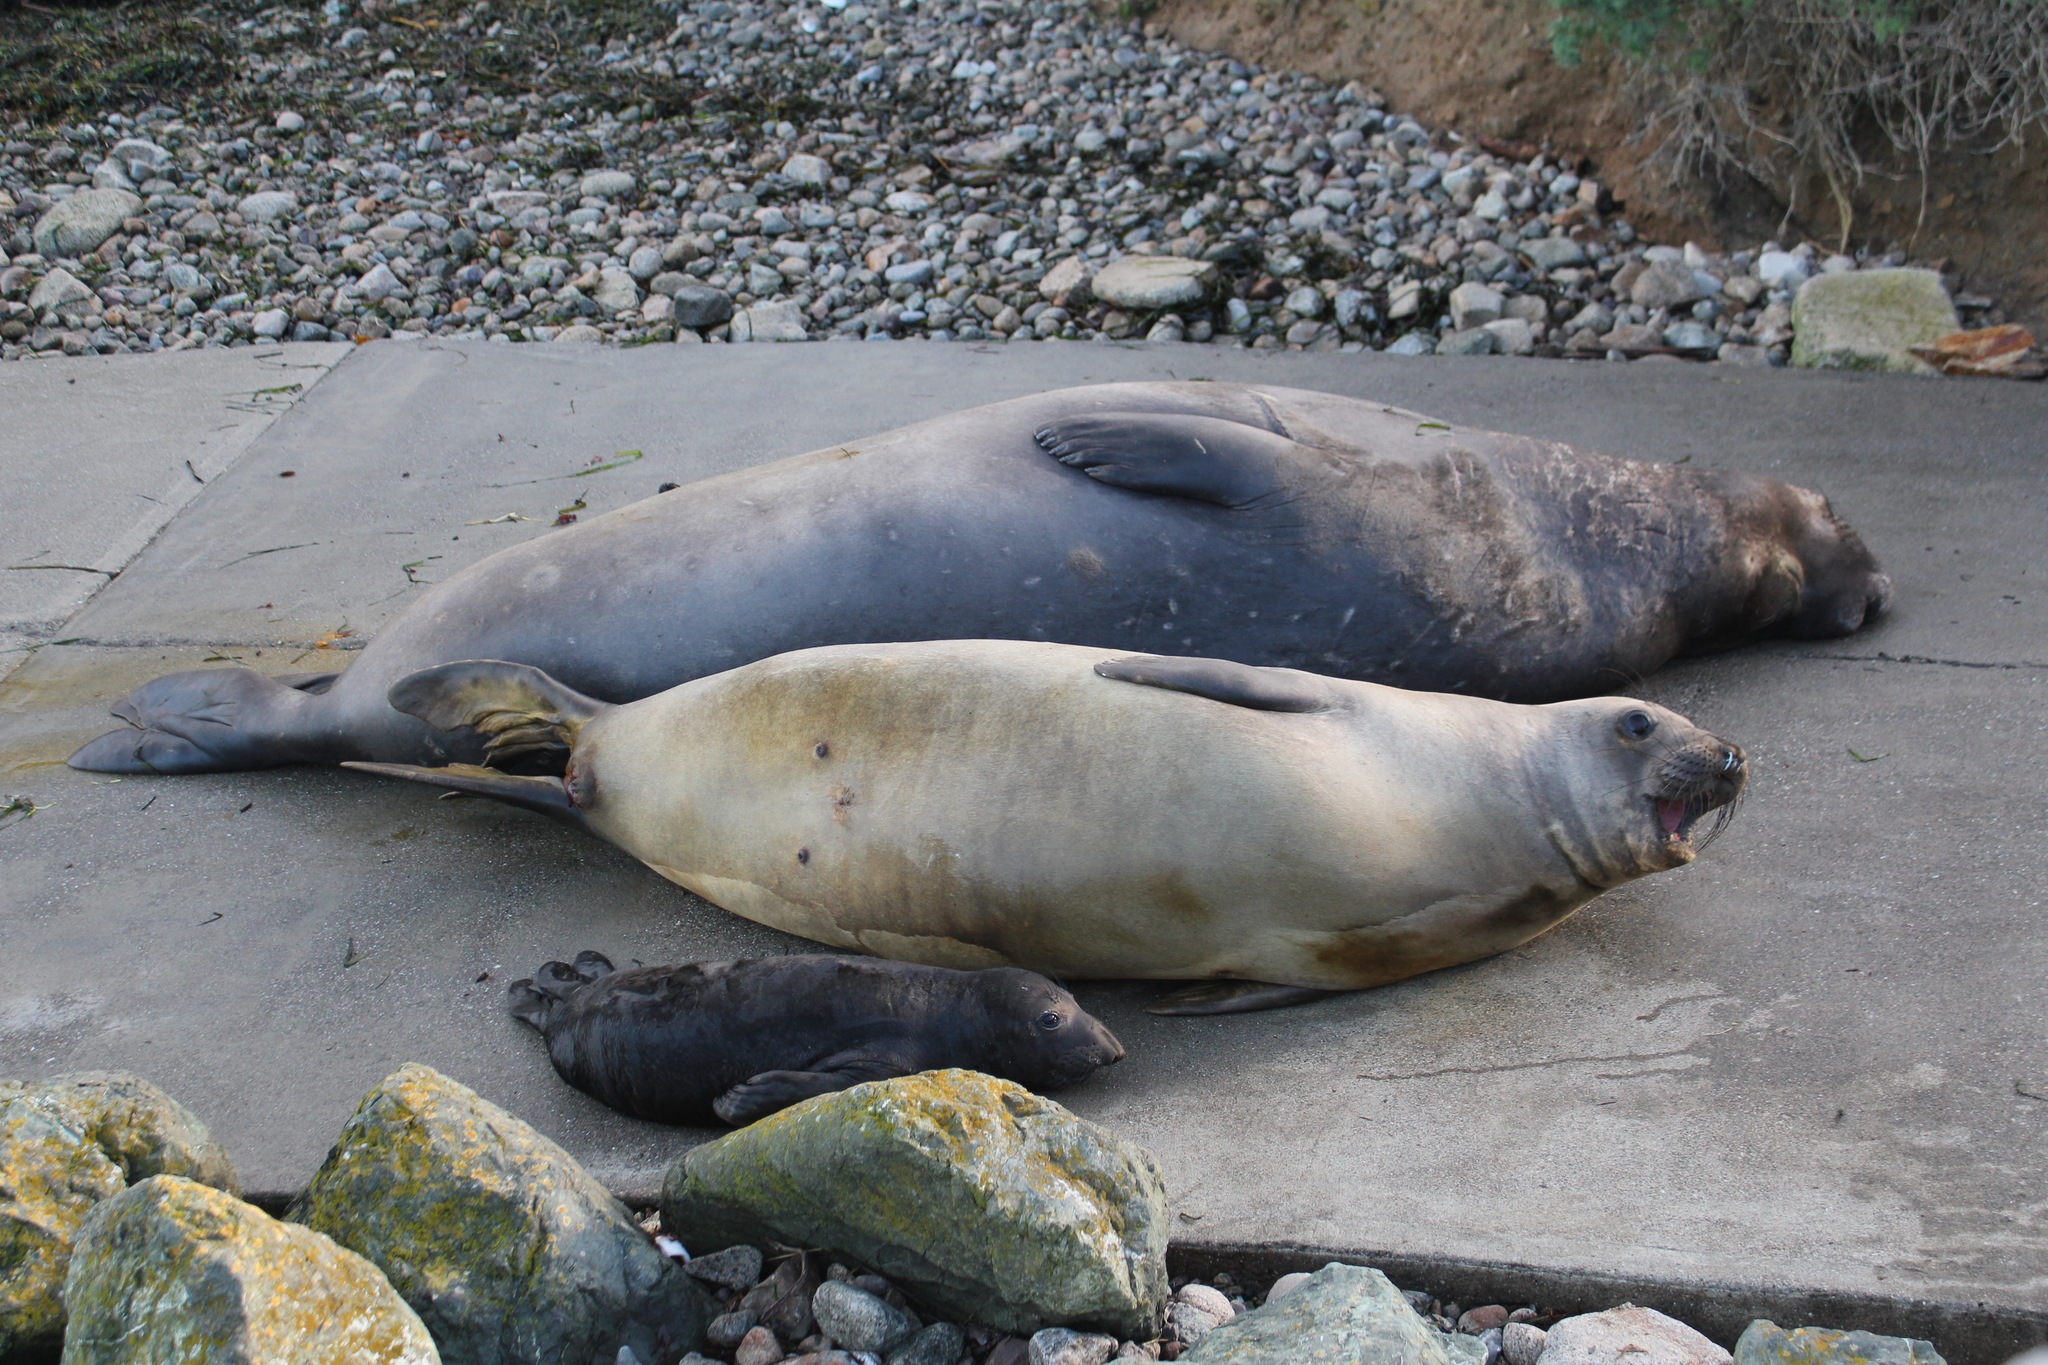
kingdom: Animalia
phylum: Chordata
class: Mammalia
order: Carnivora
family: Phocidae
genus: Mirounga
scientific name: Mirounga angustirostris
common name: Northern elephant seal
